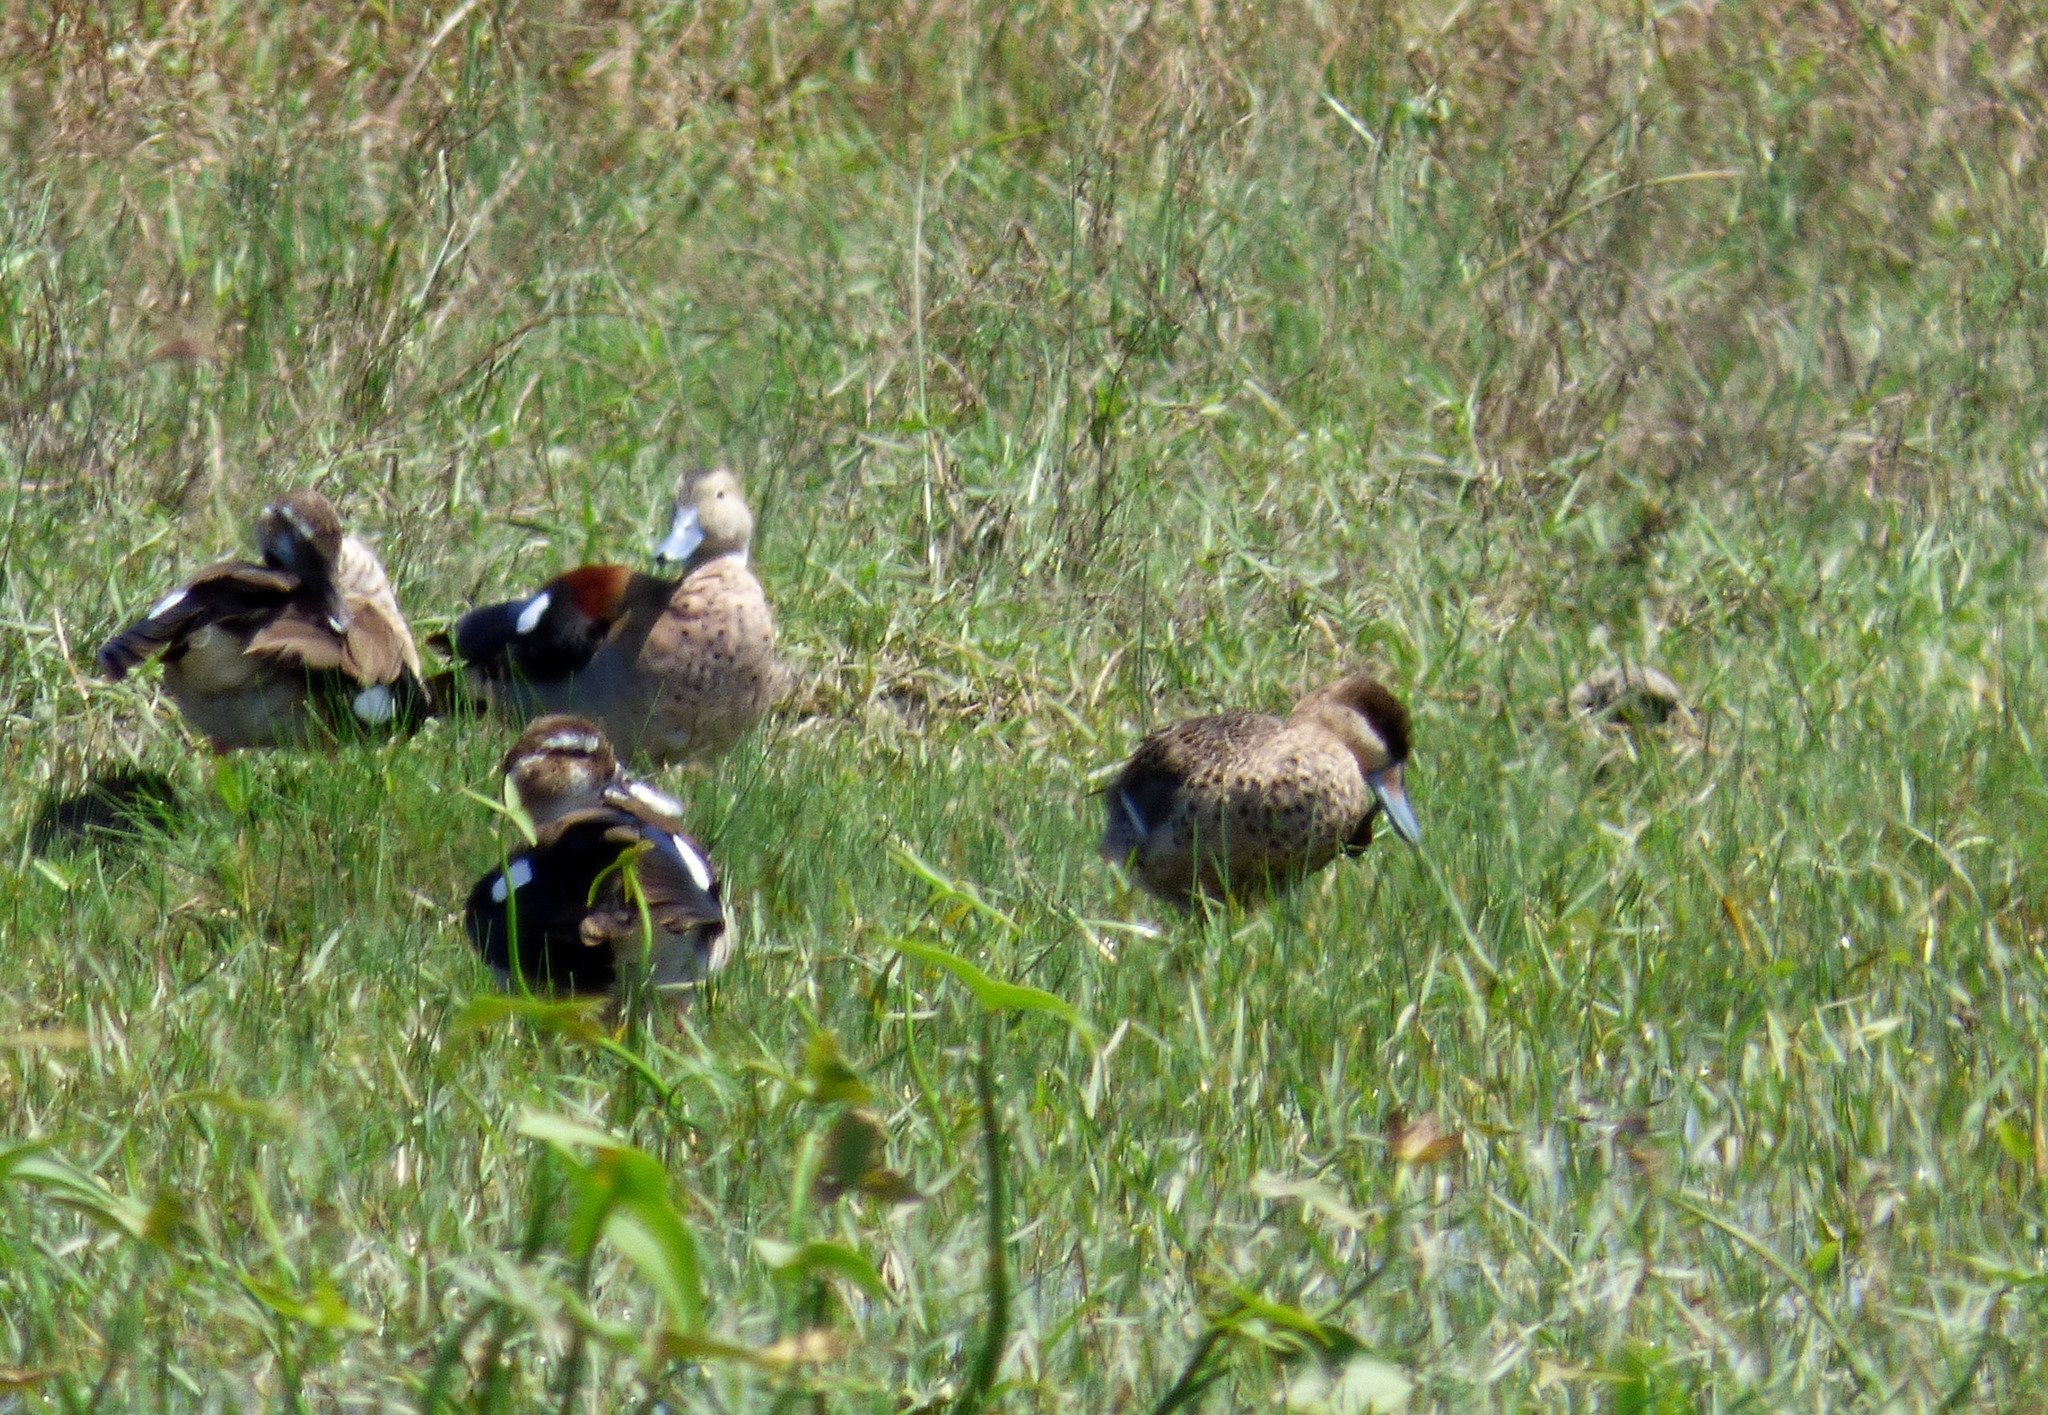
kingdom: Animalia
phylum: Chordata
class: Aves
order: Anseriformes
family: Anatidae
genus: Spatula
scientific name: Spatula versicolor
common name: Silver teal
